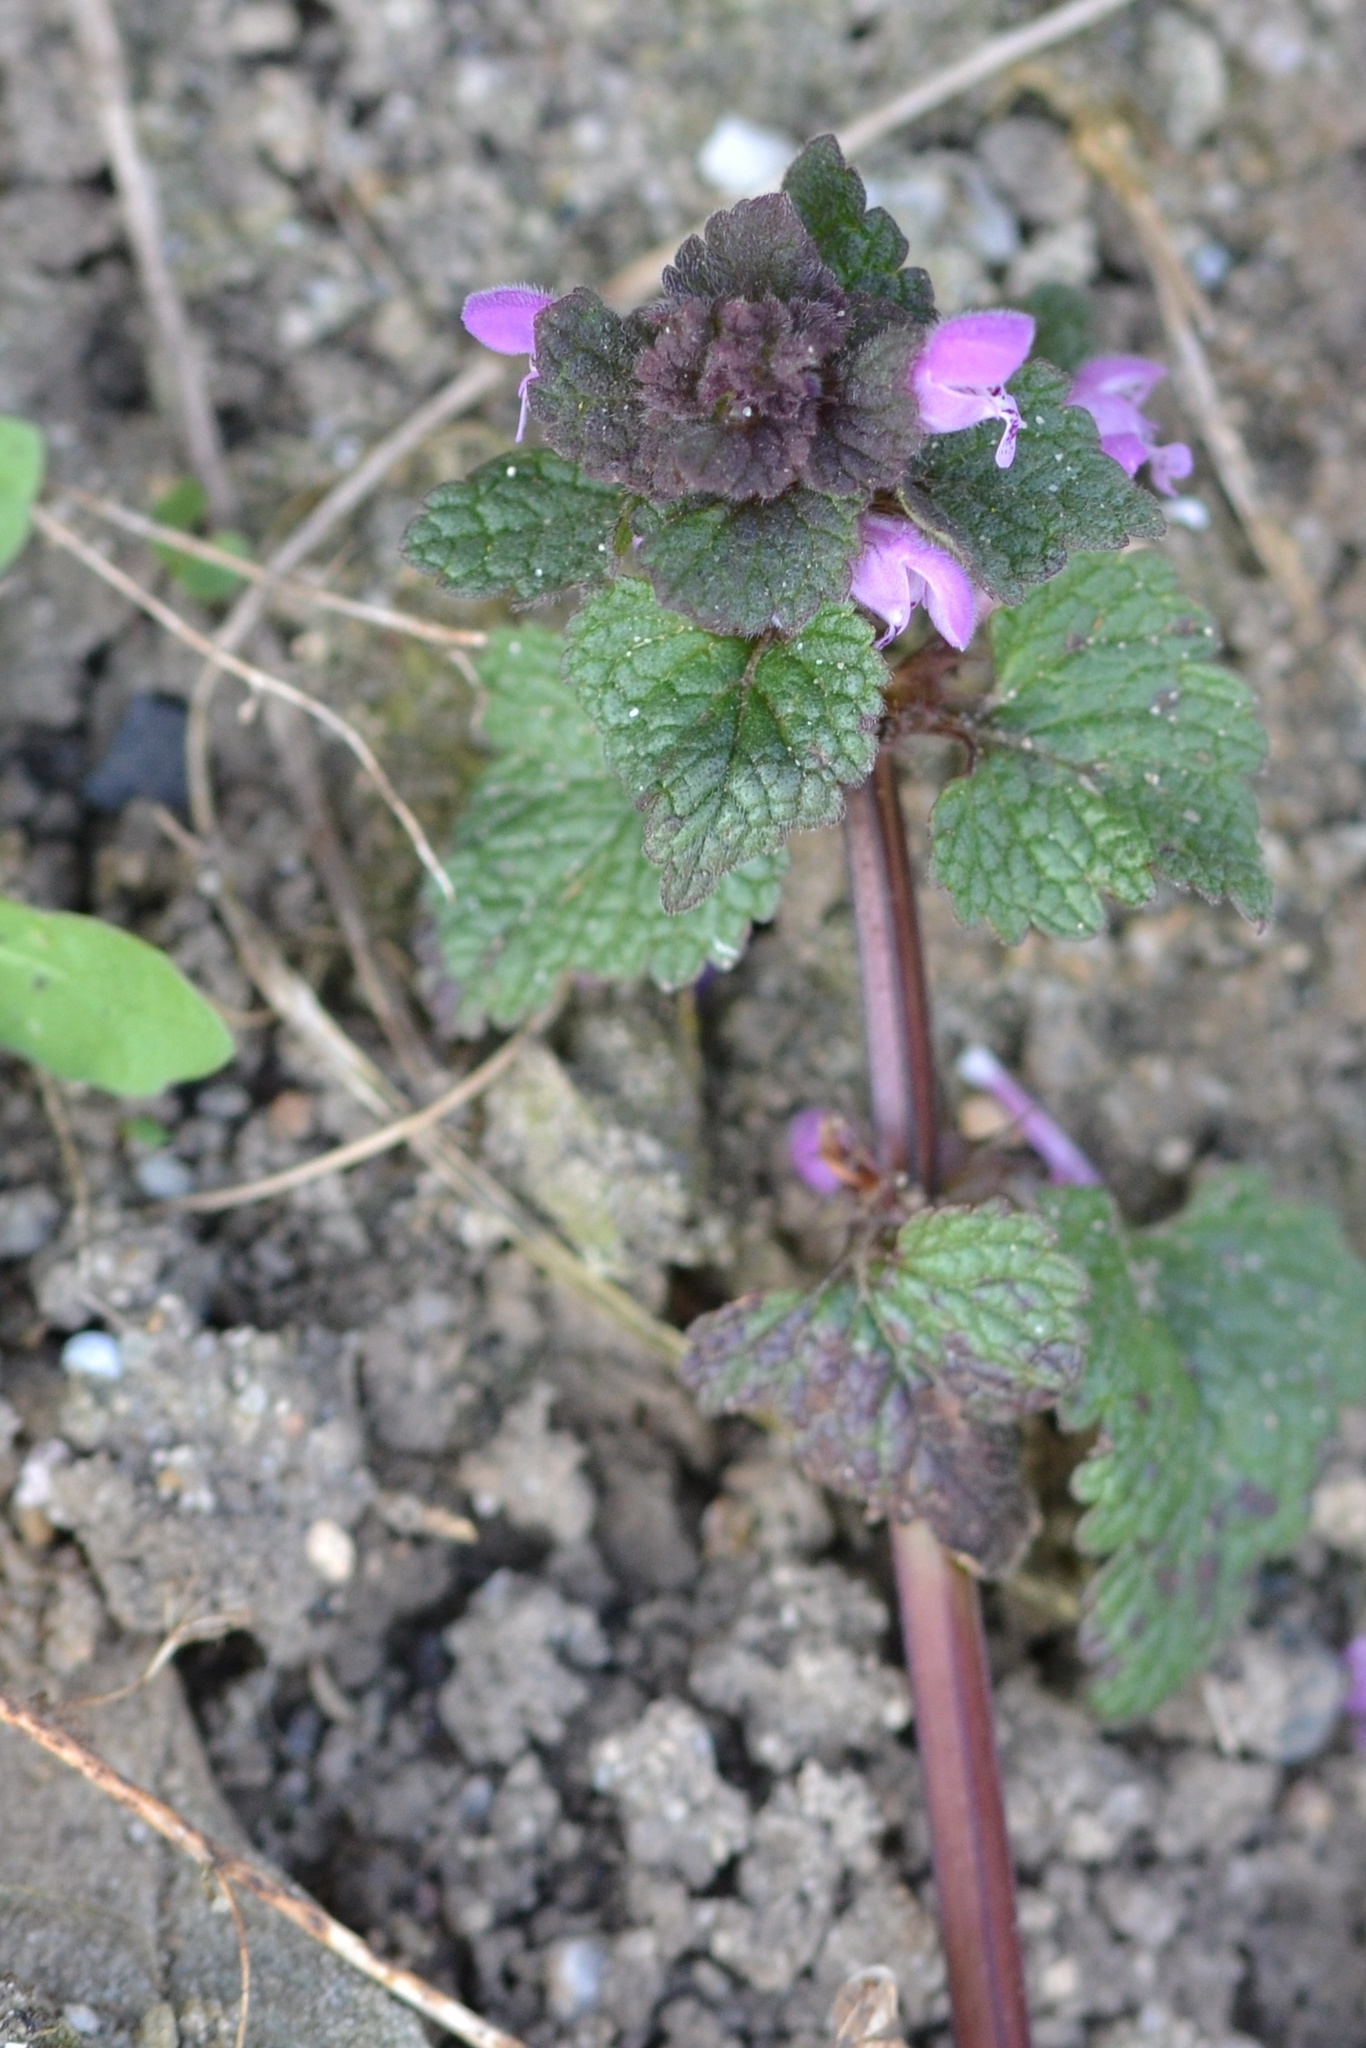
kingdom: Plantae
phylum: Tracheophyta
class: Magnoliopsida
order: Lamiales
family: Lamiaceae
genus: Lamium
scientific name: Lamium purpureum
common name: Red dead-nettle
